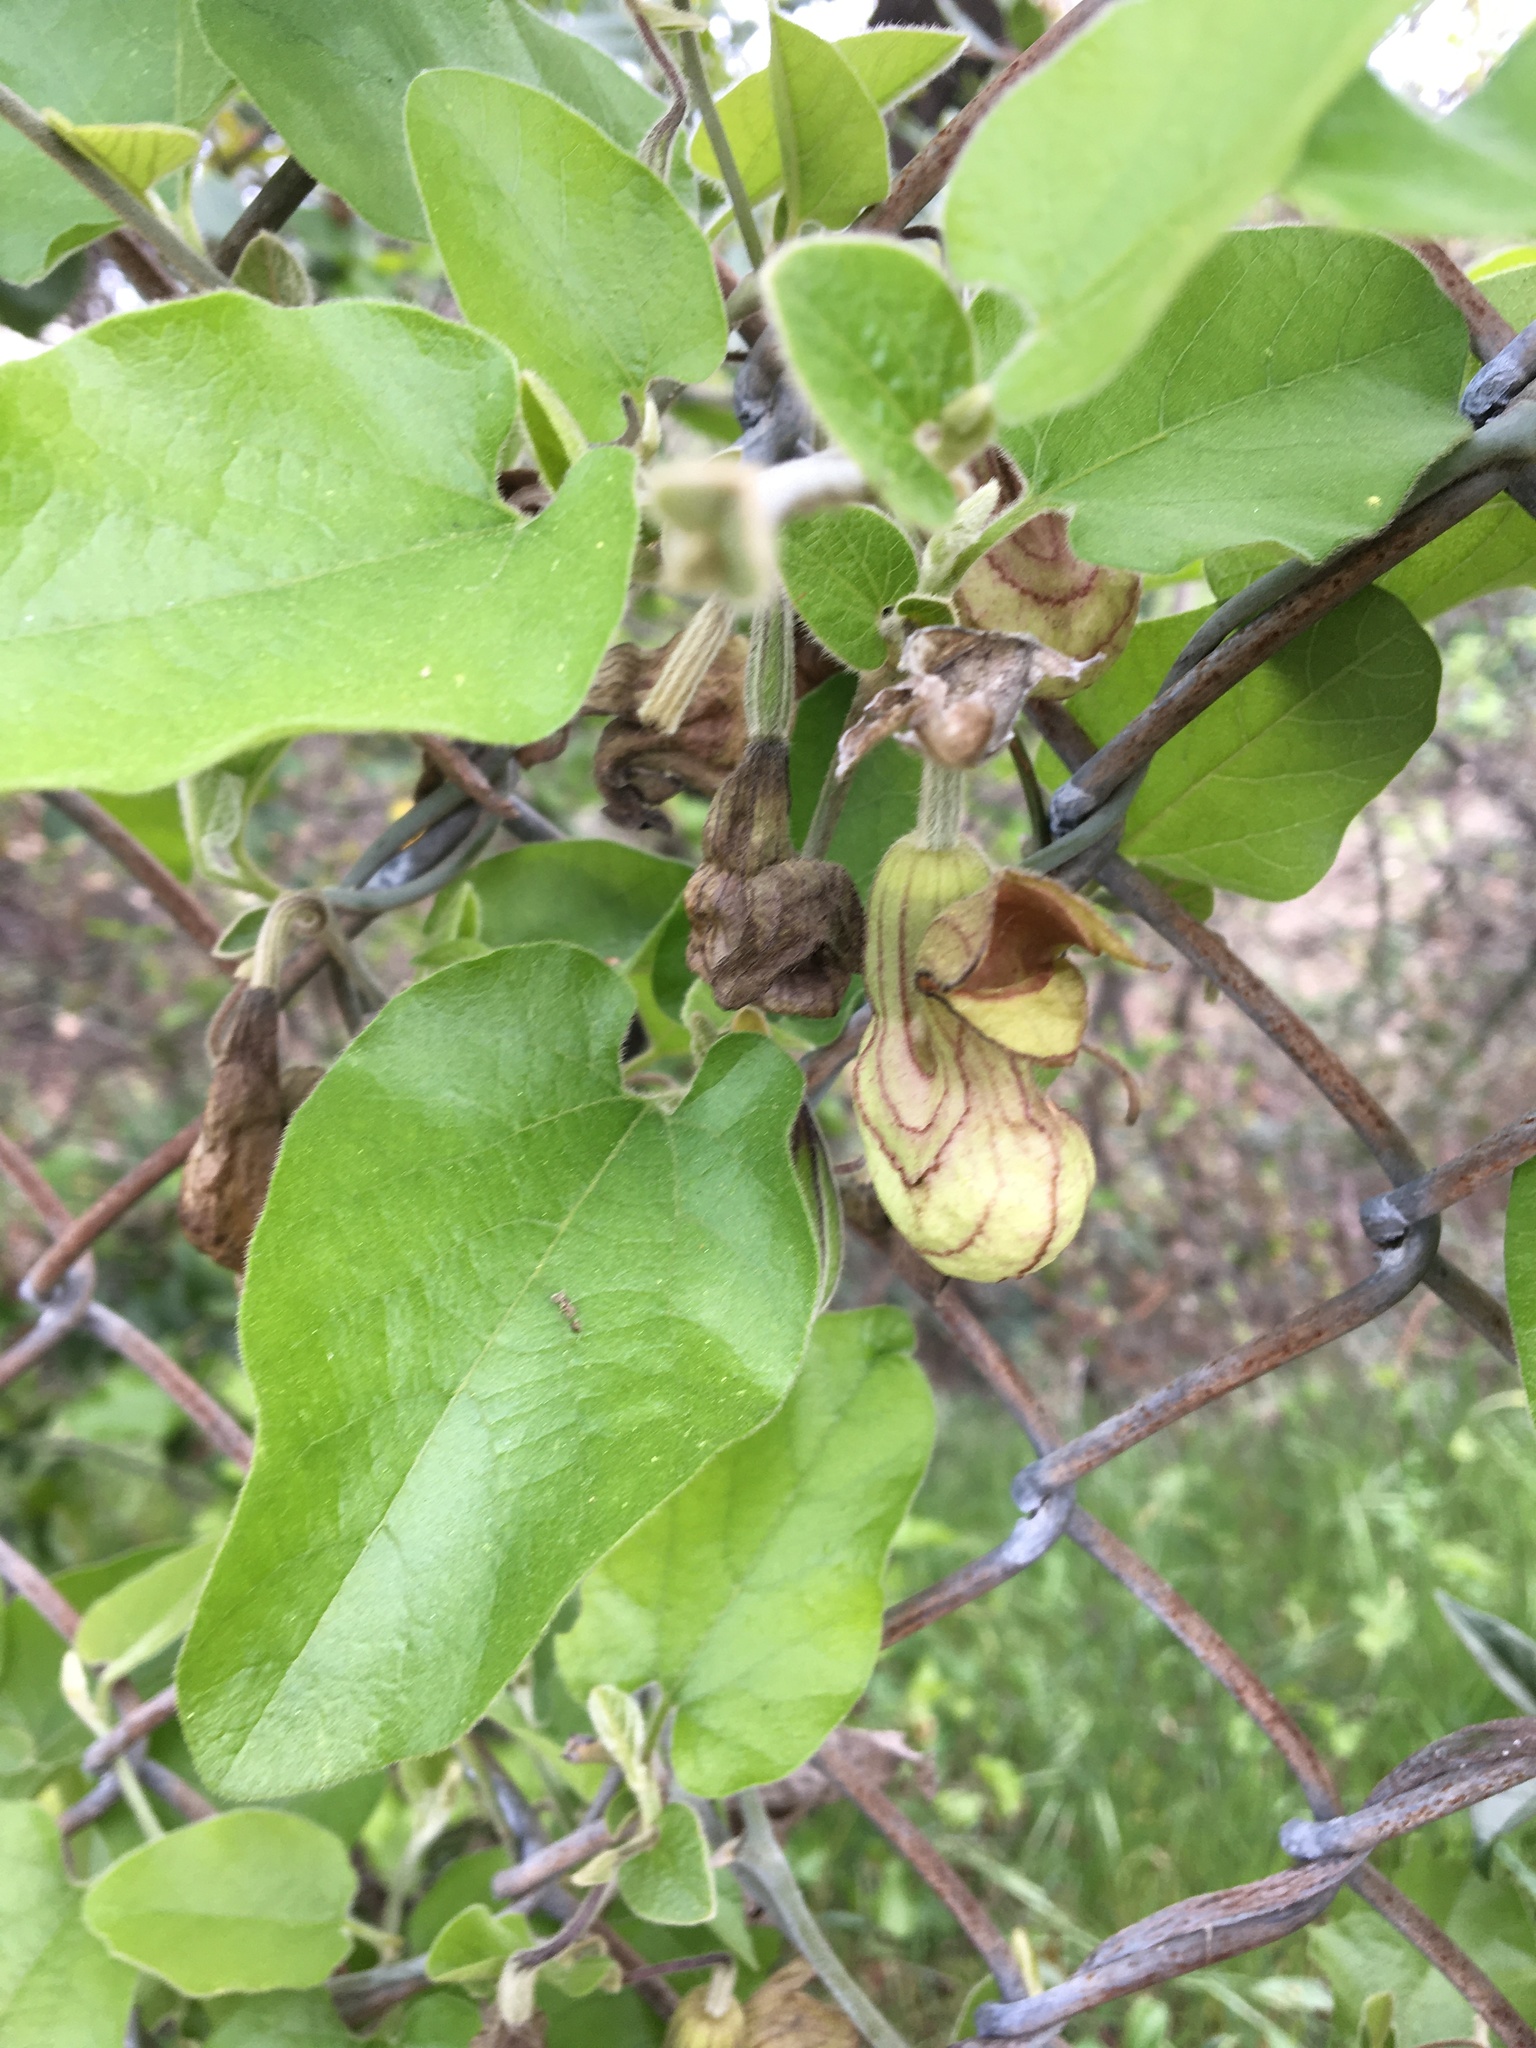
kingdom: Plantae
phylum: Tracheophyta
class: Magnoliopsida
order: Piperales
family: Aristolochiaceae
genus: Isotrema
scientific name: Isotrema californicum
